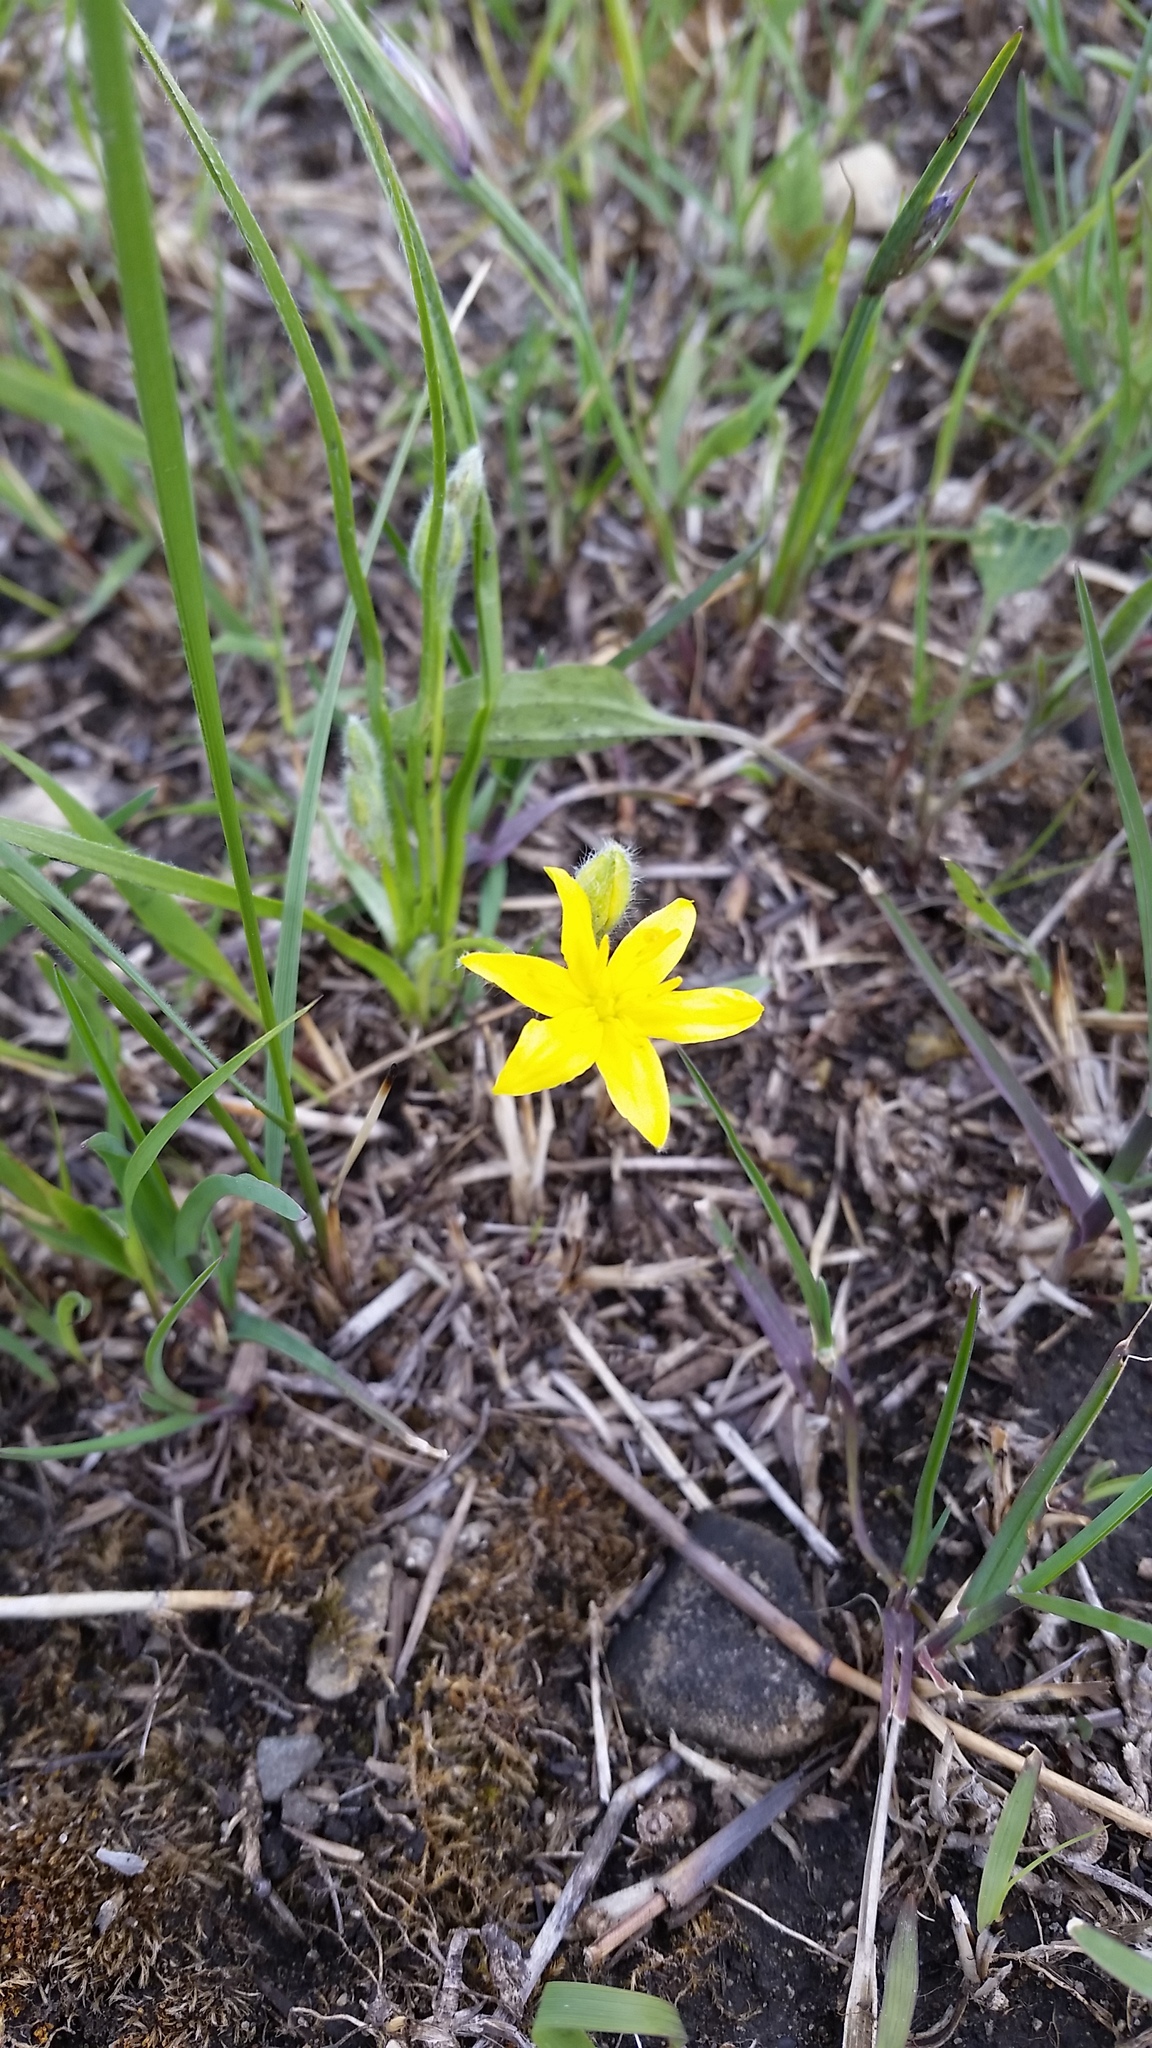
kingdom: Plantae
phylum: Tracheophyta
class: Liliopsida
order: Asparagales
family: Hypoxidaceae
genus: Hypoxis
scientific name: Hypoxis hirsuta
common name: Common goldstar
